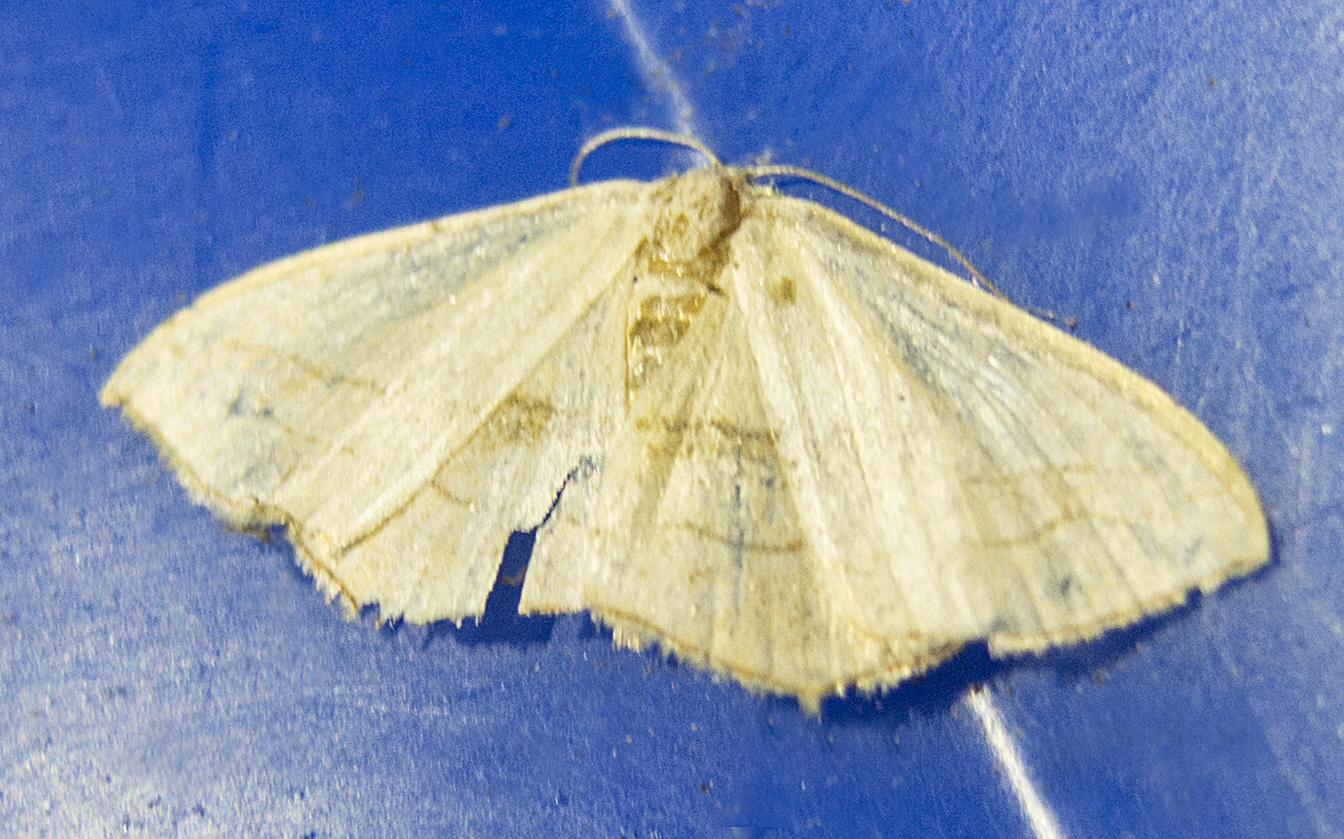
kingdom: Animalia
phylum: Arthropoda
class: Insecta
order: Lepidoptera
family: Geometridae
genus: Scopula
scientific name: Scopula imitaria
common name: Small blood-vein
